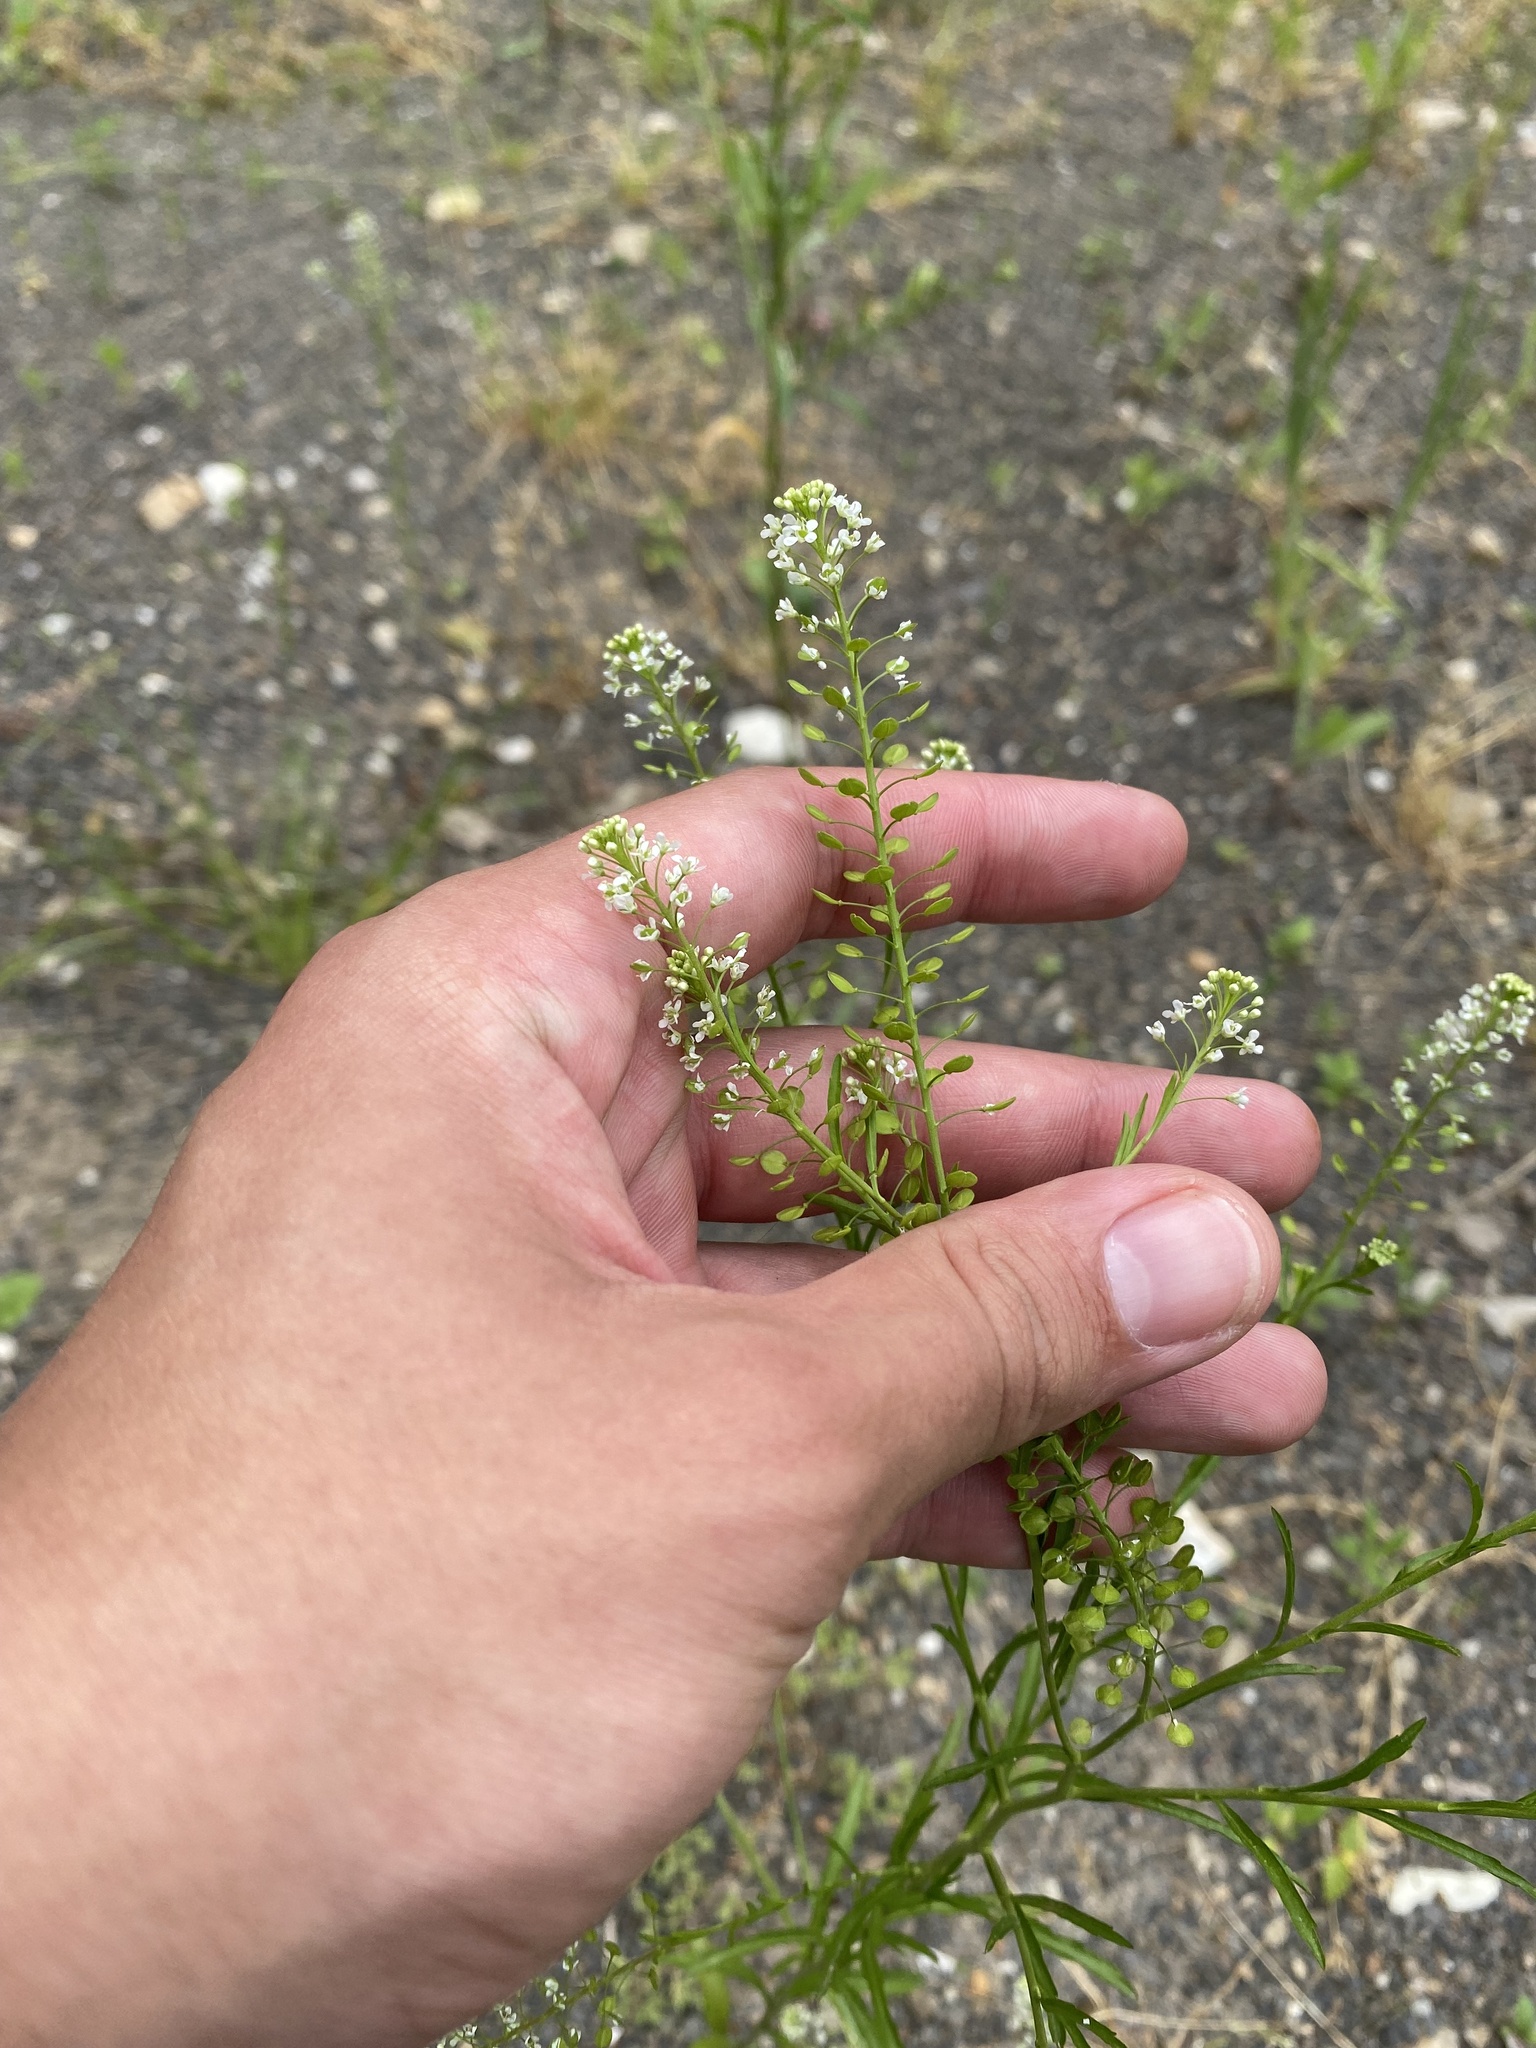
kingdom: Plantae
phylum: Tracheophyta
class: Magnoliopsida
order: Brassicales
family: Brassicaceae
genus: Lepidium
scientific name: Lepidium virginicum
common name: Least pepperwort
